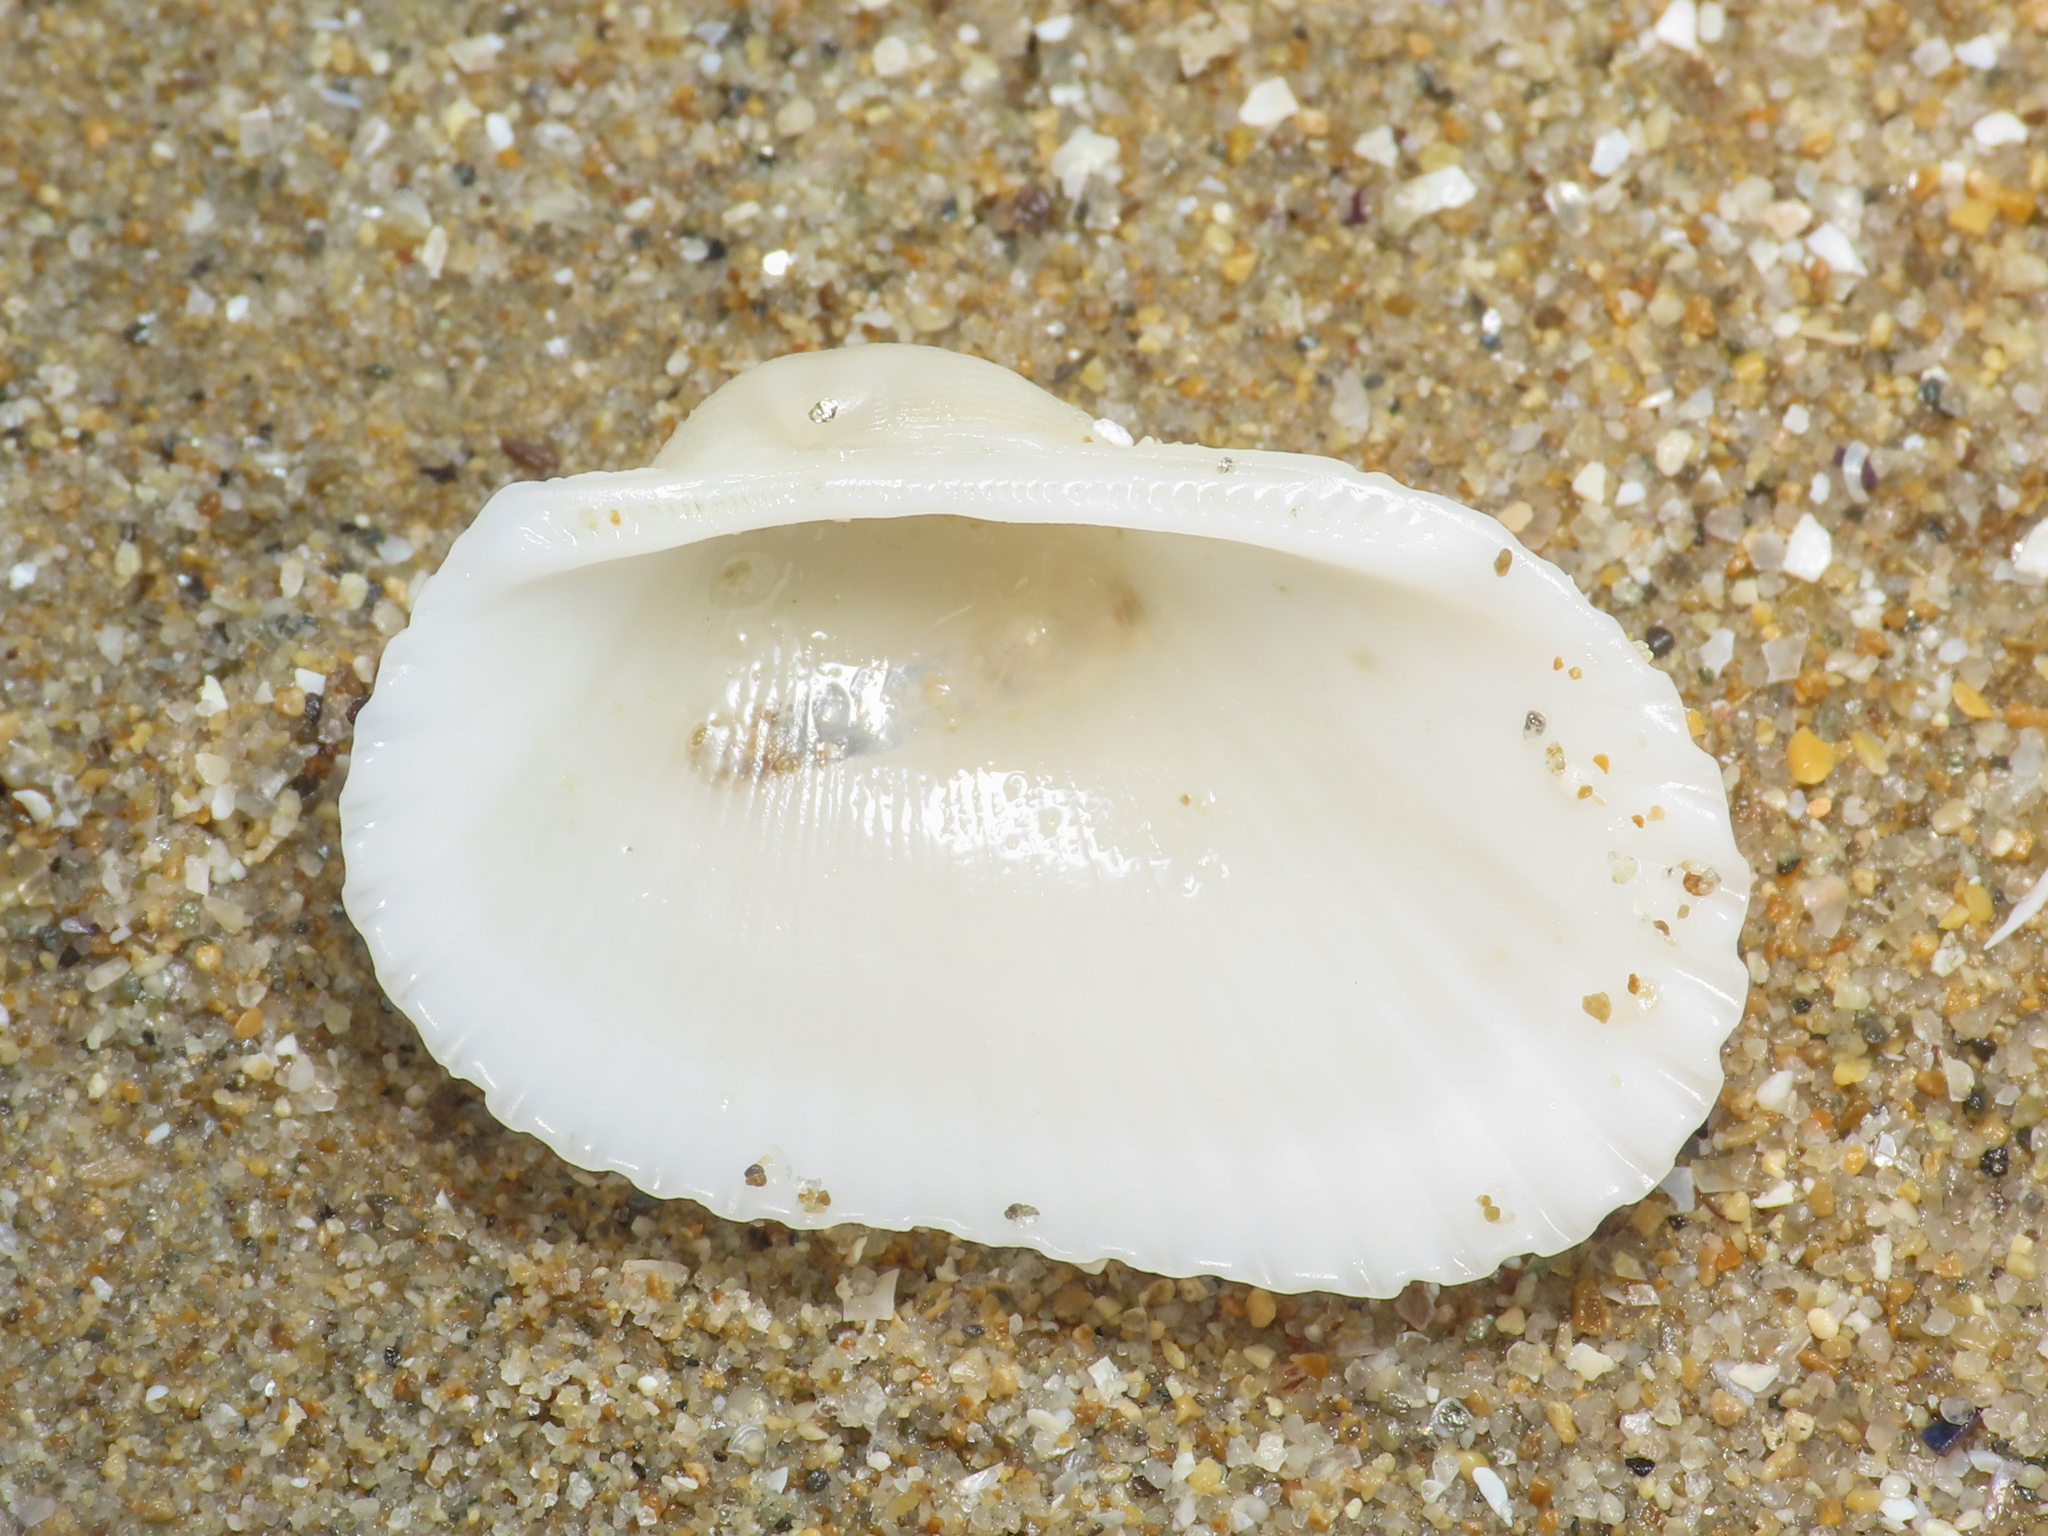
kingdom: Animalia
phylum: Mollusca
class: Bivalvia
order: Arcida
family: Arcidae
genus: Anadara
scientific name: Anadara transversa
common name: Transverse ark
